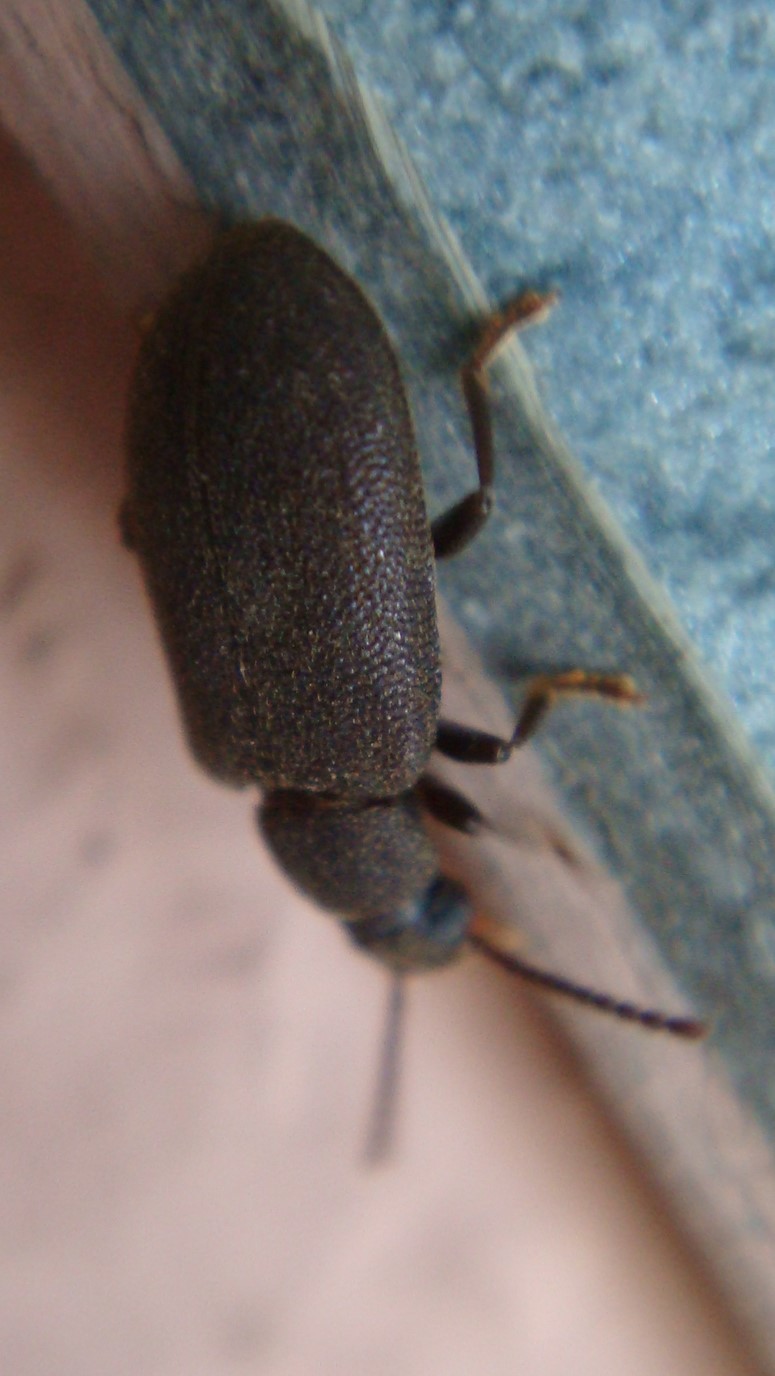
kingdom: Animalia
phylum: Arthropoda
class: Insecta
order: Coleoptera
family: Tenebrionidae
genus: Hegeter
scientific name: Hegeter tristis
